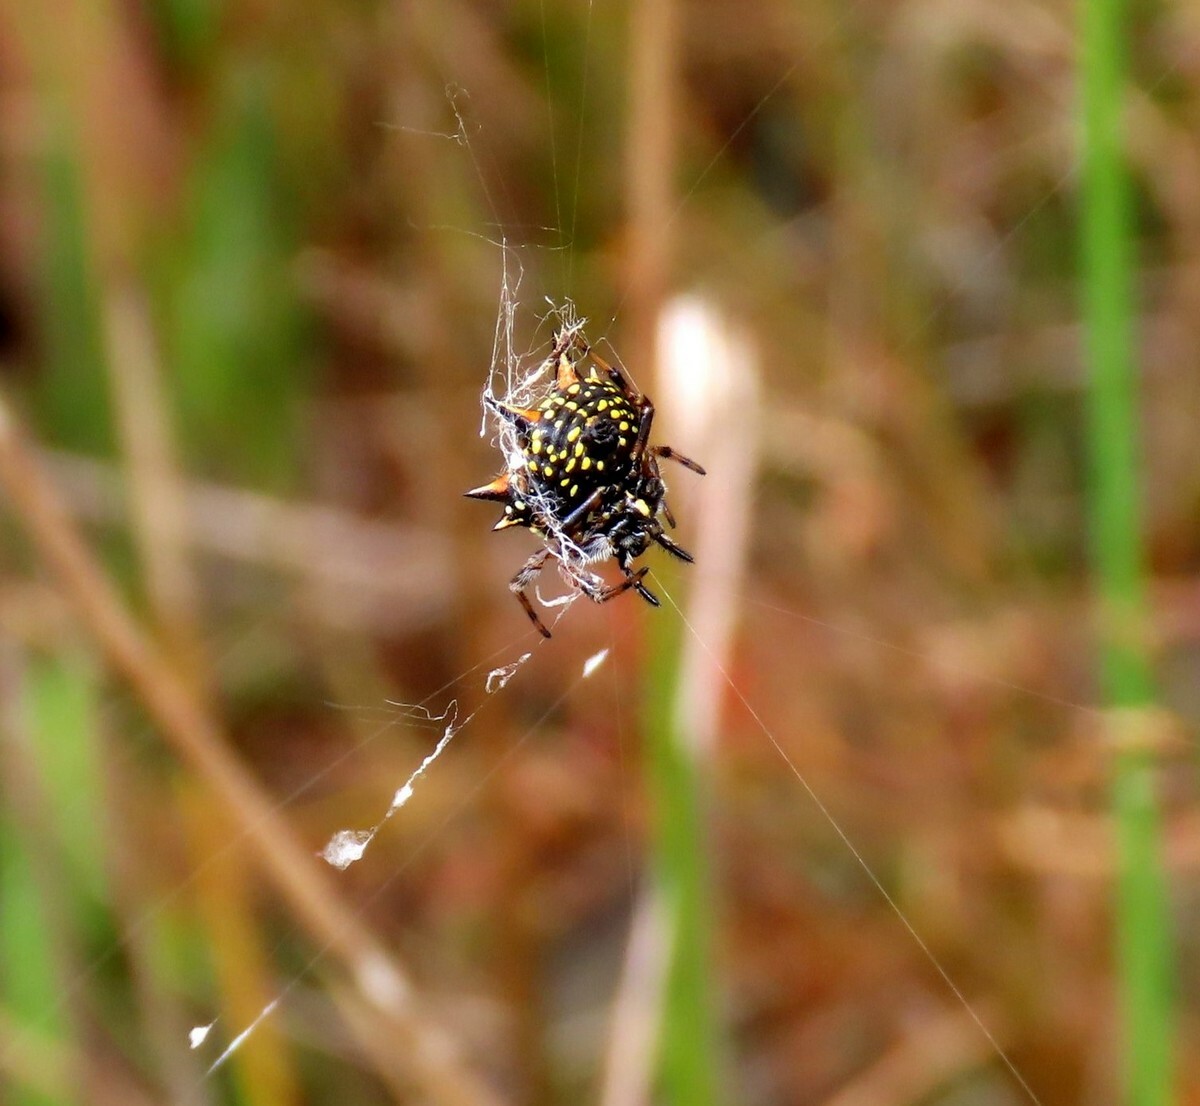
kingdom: Animalia
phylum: Arthropoda
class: Arachnida
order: Araneae
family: Araneidae
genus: Austracantha
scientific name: Austracantha minax
